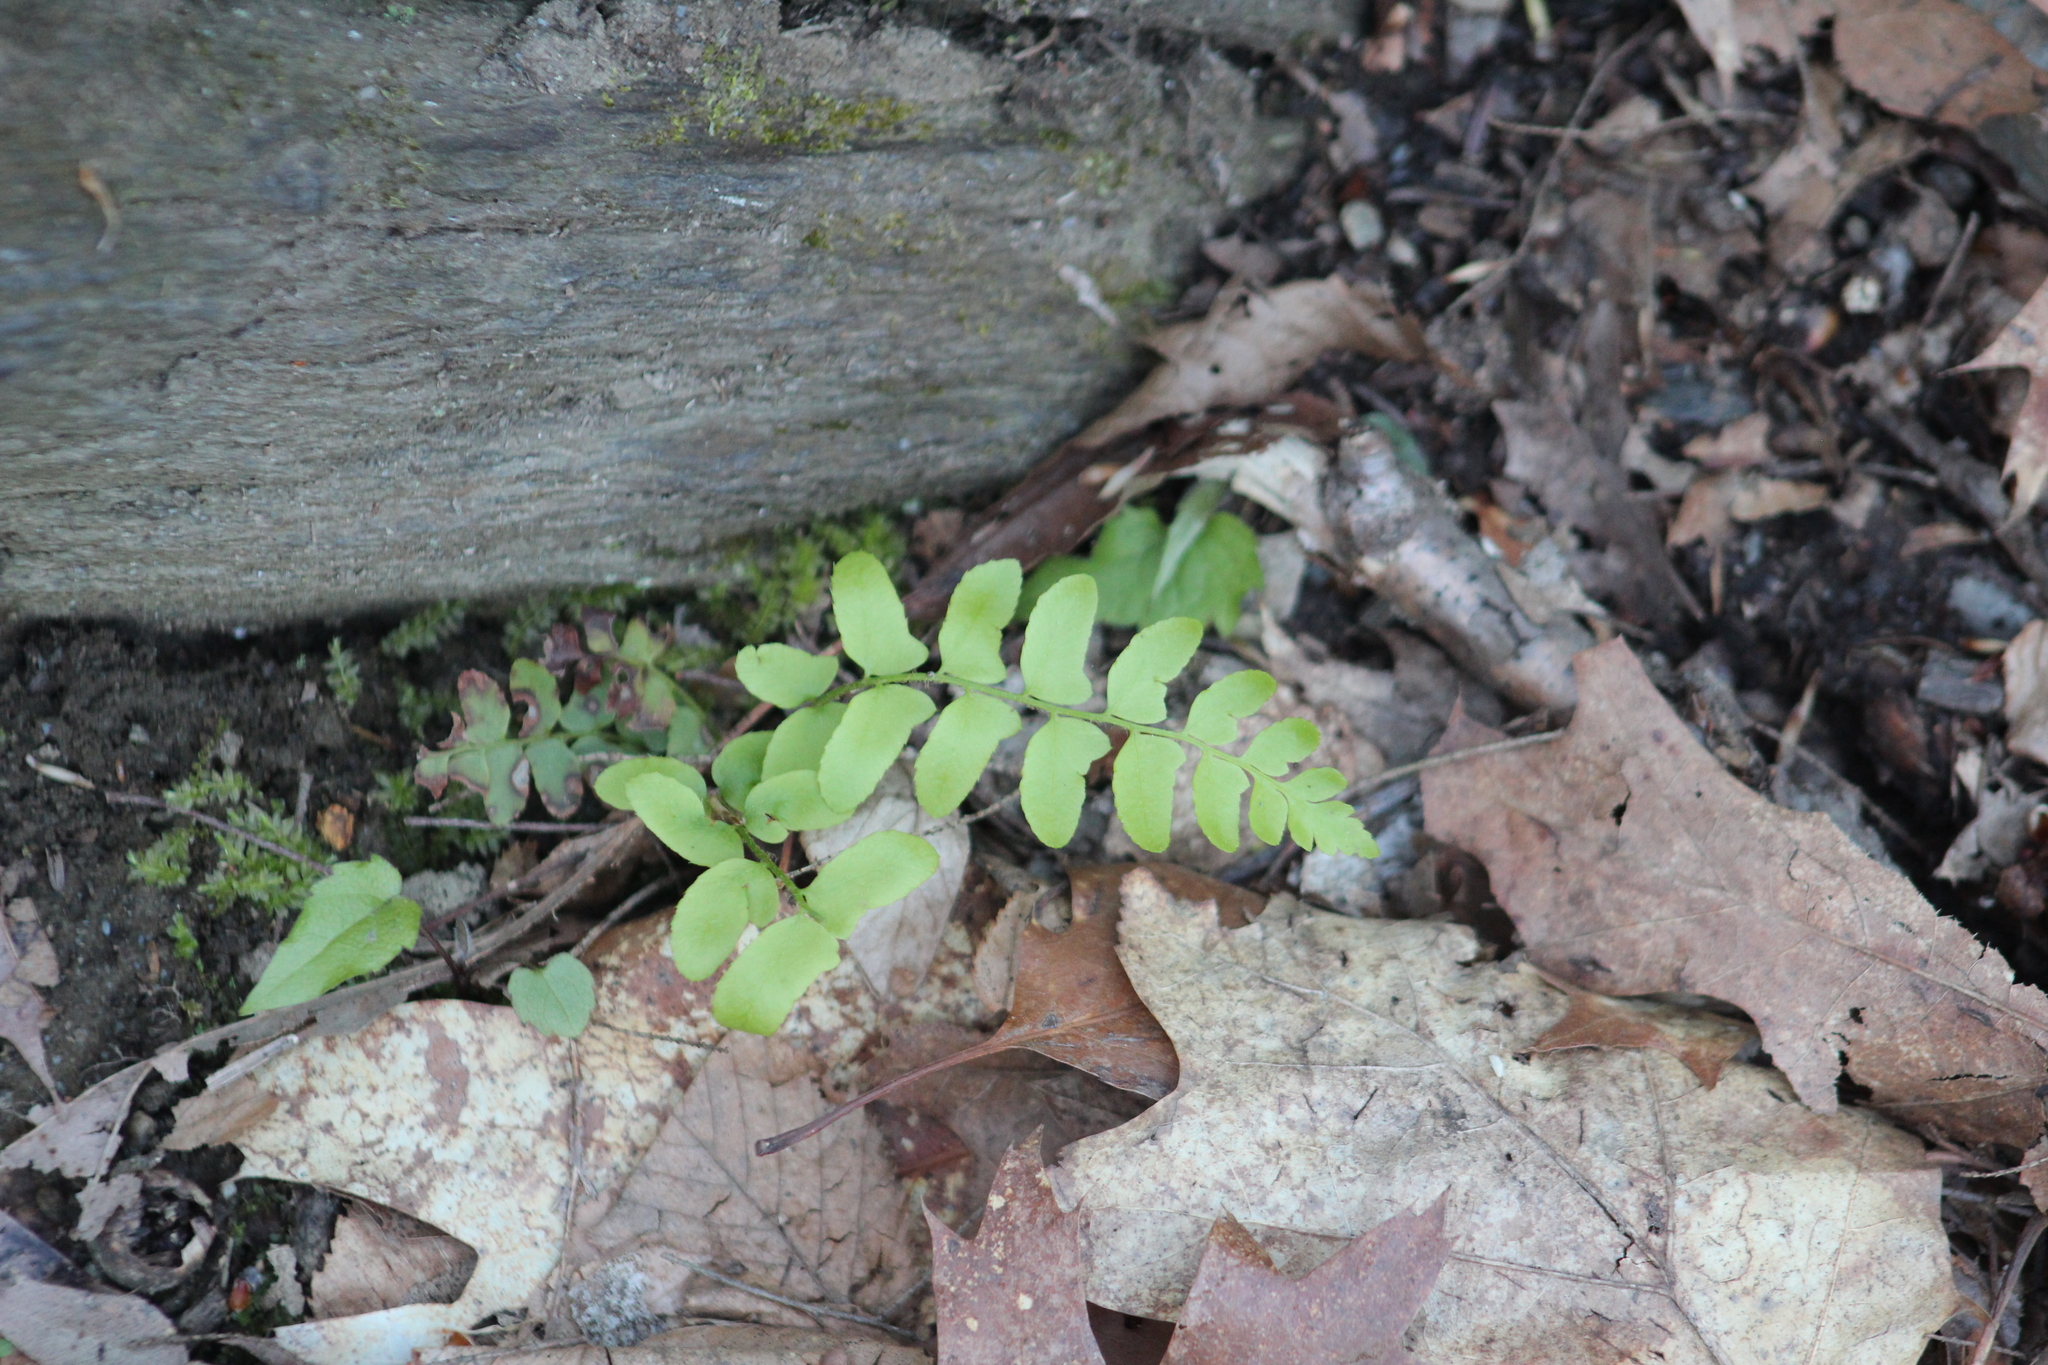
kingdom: Plantae
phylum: Tracheophyta
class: Polypodiopsida
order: Polypodiales
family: Dryopteridaceae
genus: Polystichum
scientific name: Polystichum acrostichoides
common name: Christmas fern
